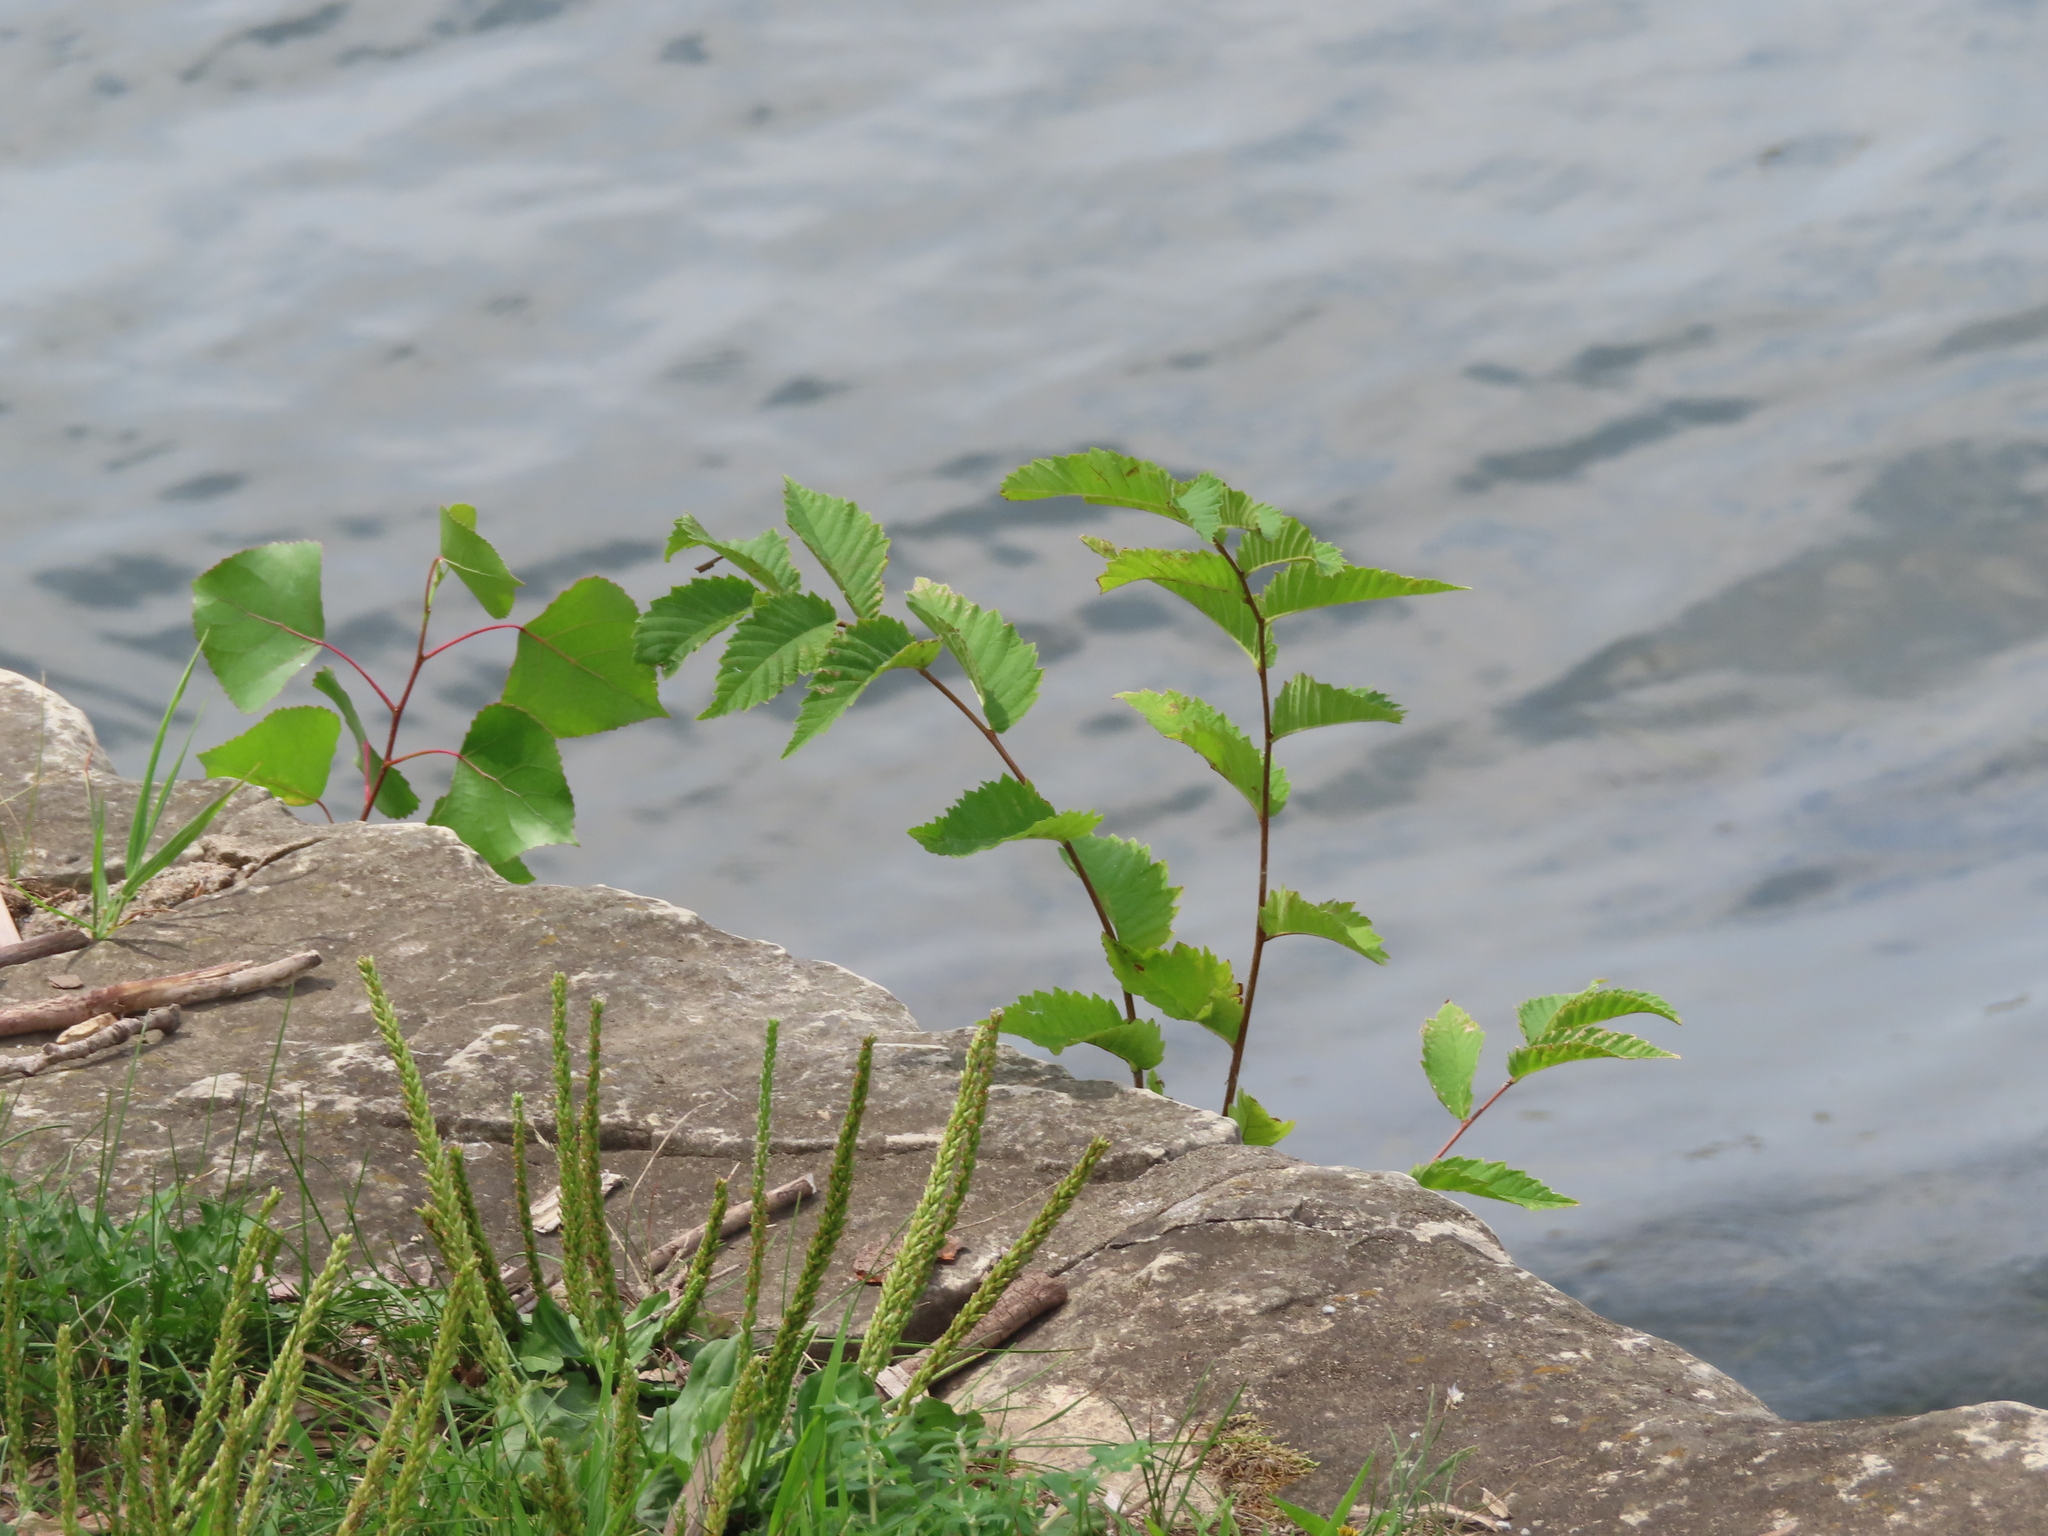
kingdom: Plantae
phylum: Tracheophyta
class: Magnoliopsida
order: Malpighiales
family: Salicaceae
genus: Populus
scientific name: Populus deltoides
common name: Eastern cottonwood
